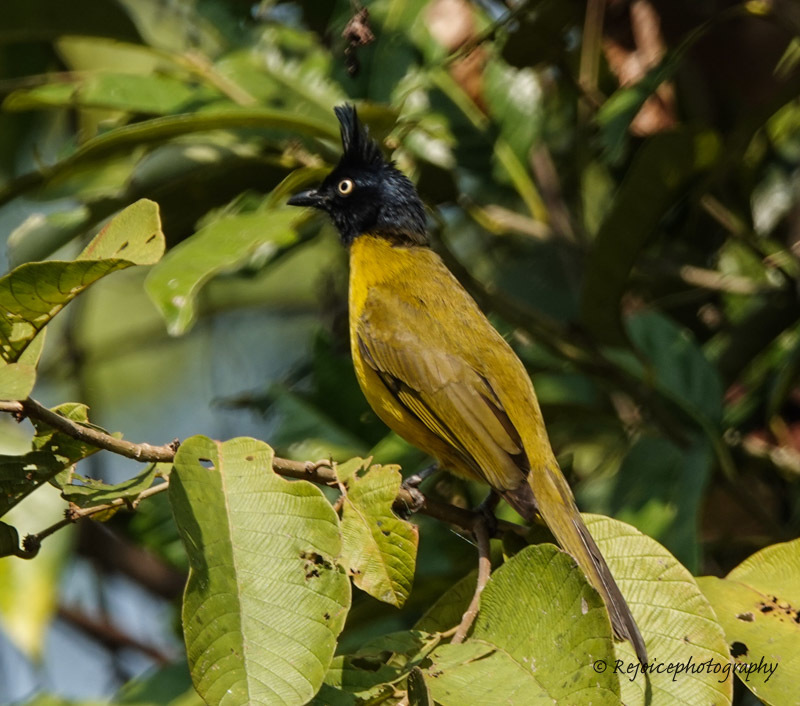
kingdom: Animalia
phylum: Chordata
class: Aves
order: Passeriformes
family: Pycnonotidae
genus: Pycnonotus
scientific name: Pycnonotus flaviventris
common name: Black-crested bulbul
